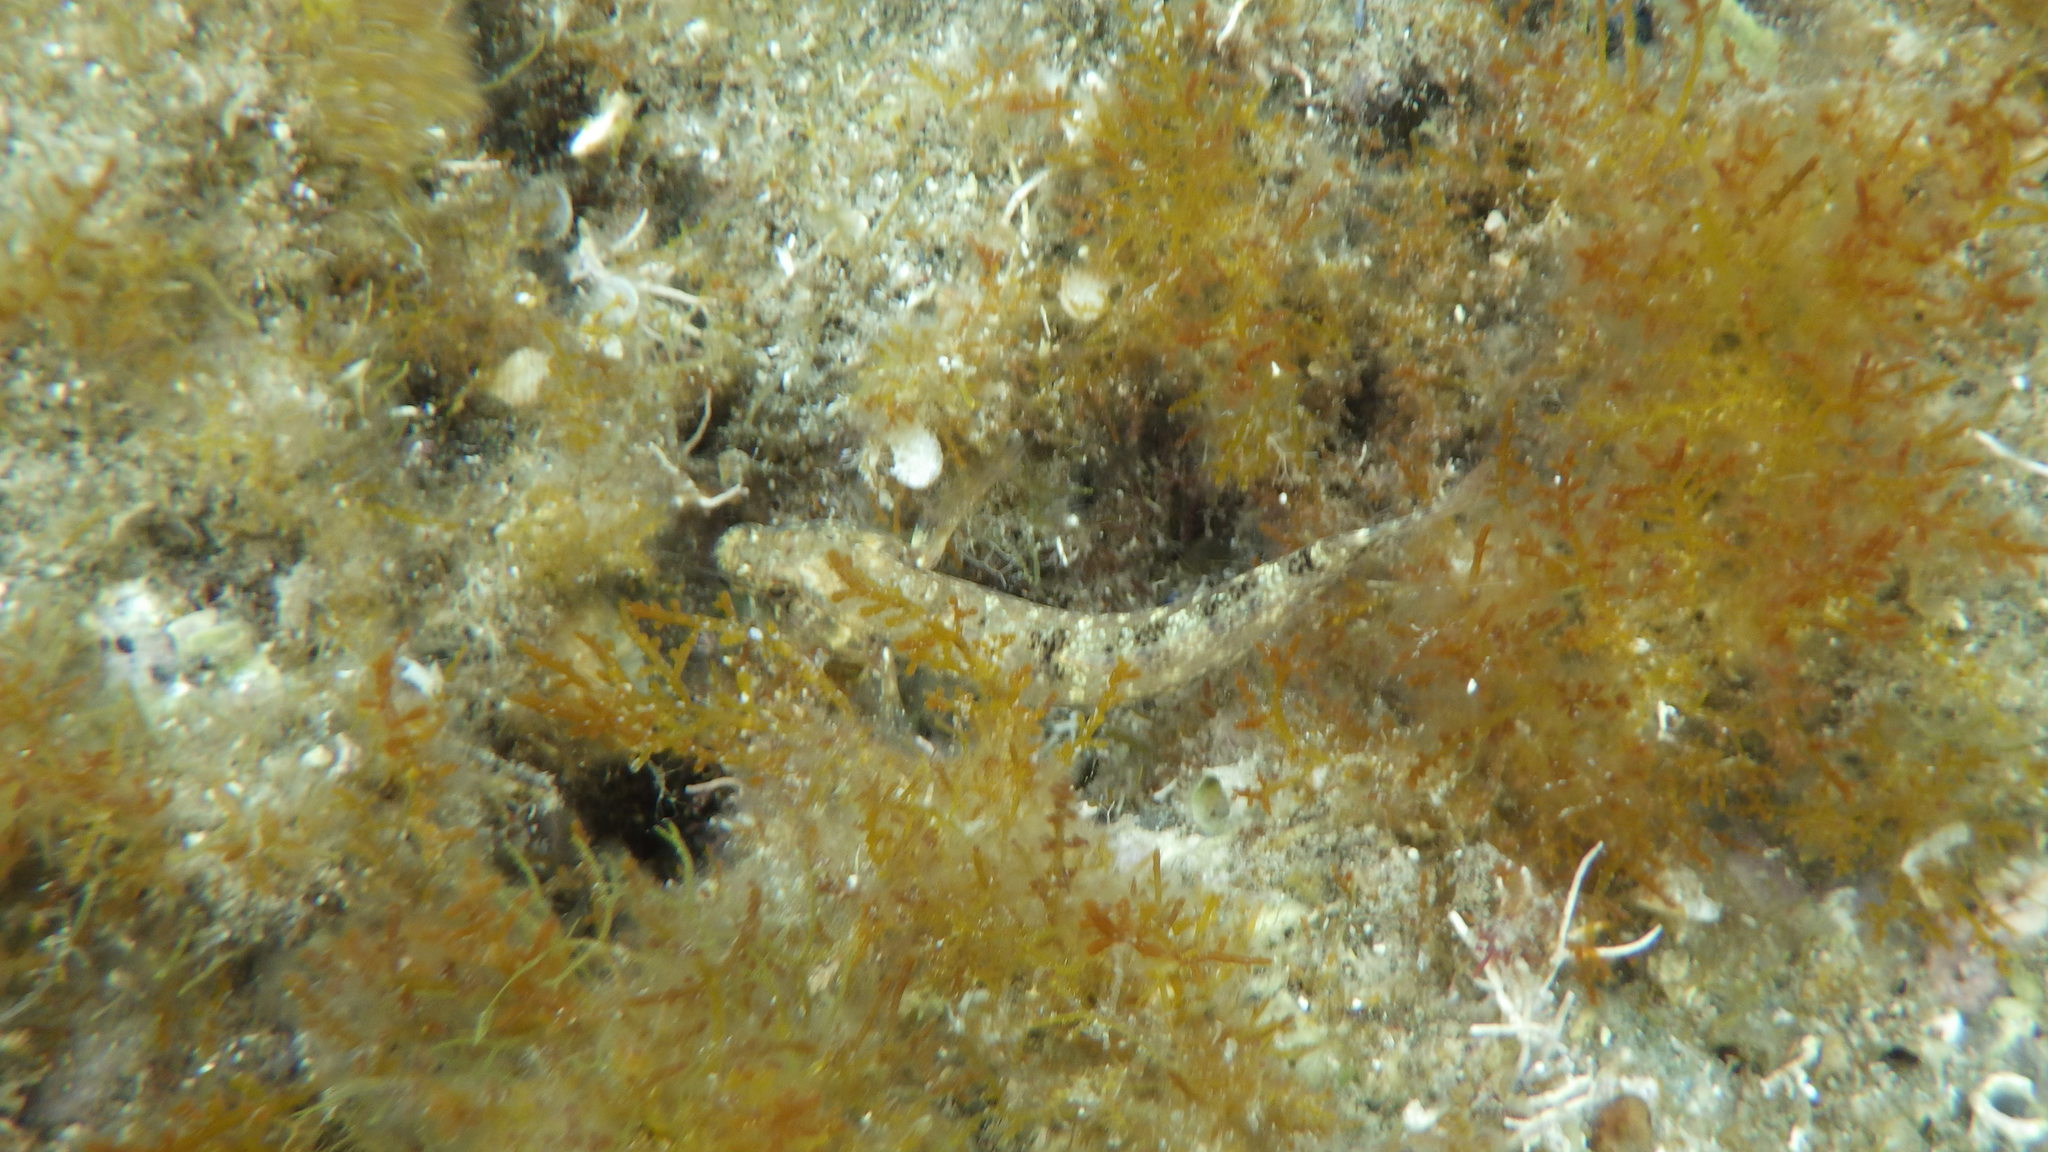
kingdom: Animalia
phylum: Chordata
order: Perciformes
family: Gobiidae
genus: Gobius
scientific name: Gobius incognitus
